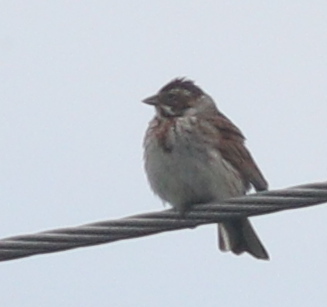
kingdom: Animalia
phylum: Chordata
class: Aves
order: Passeriformes
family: Emberizidae
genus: Emberiza
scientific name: Emberiza schoeniclus
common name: Reed bunting
